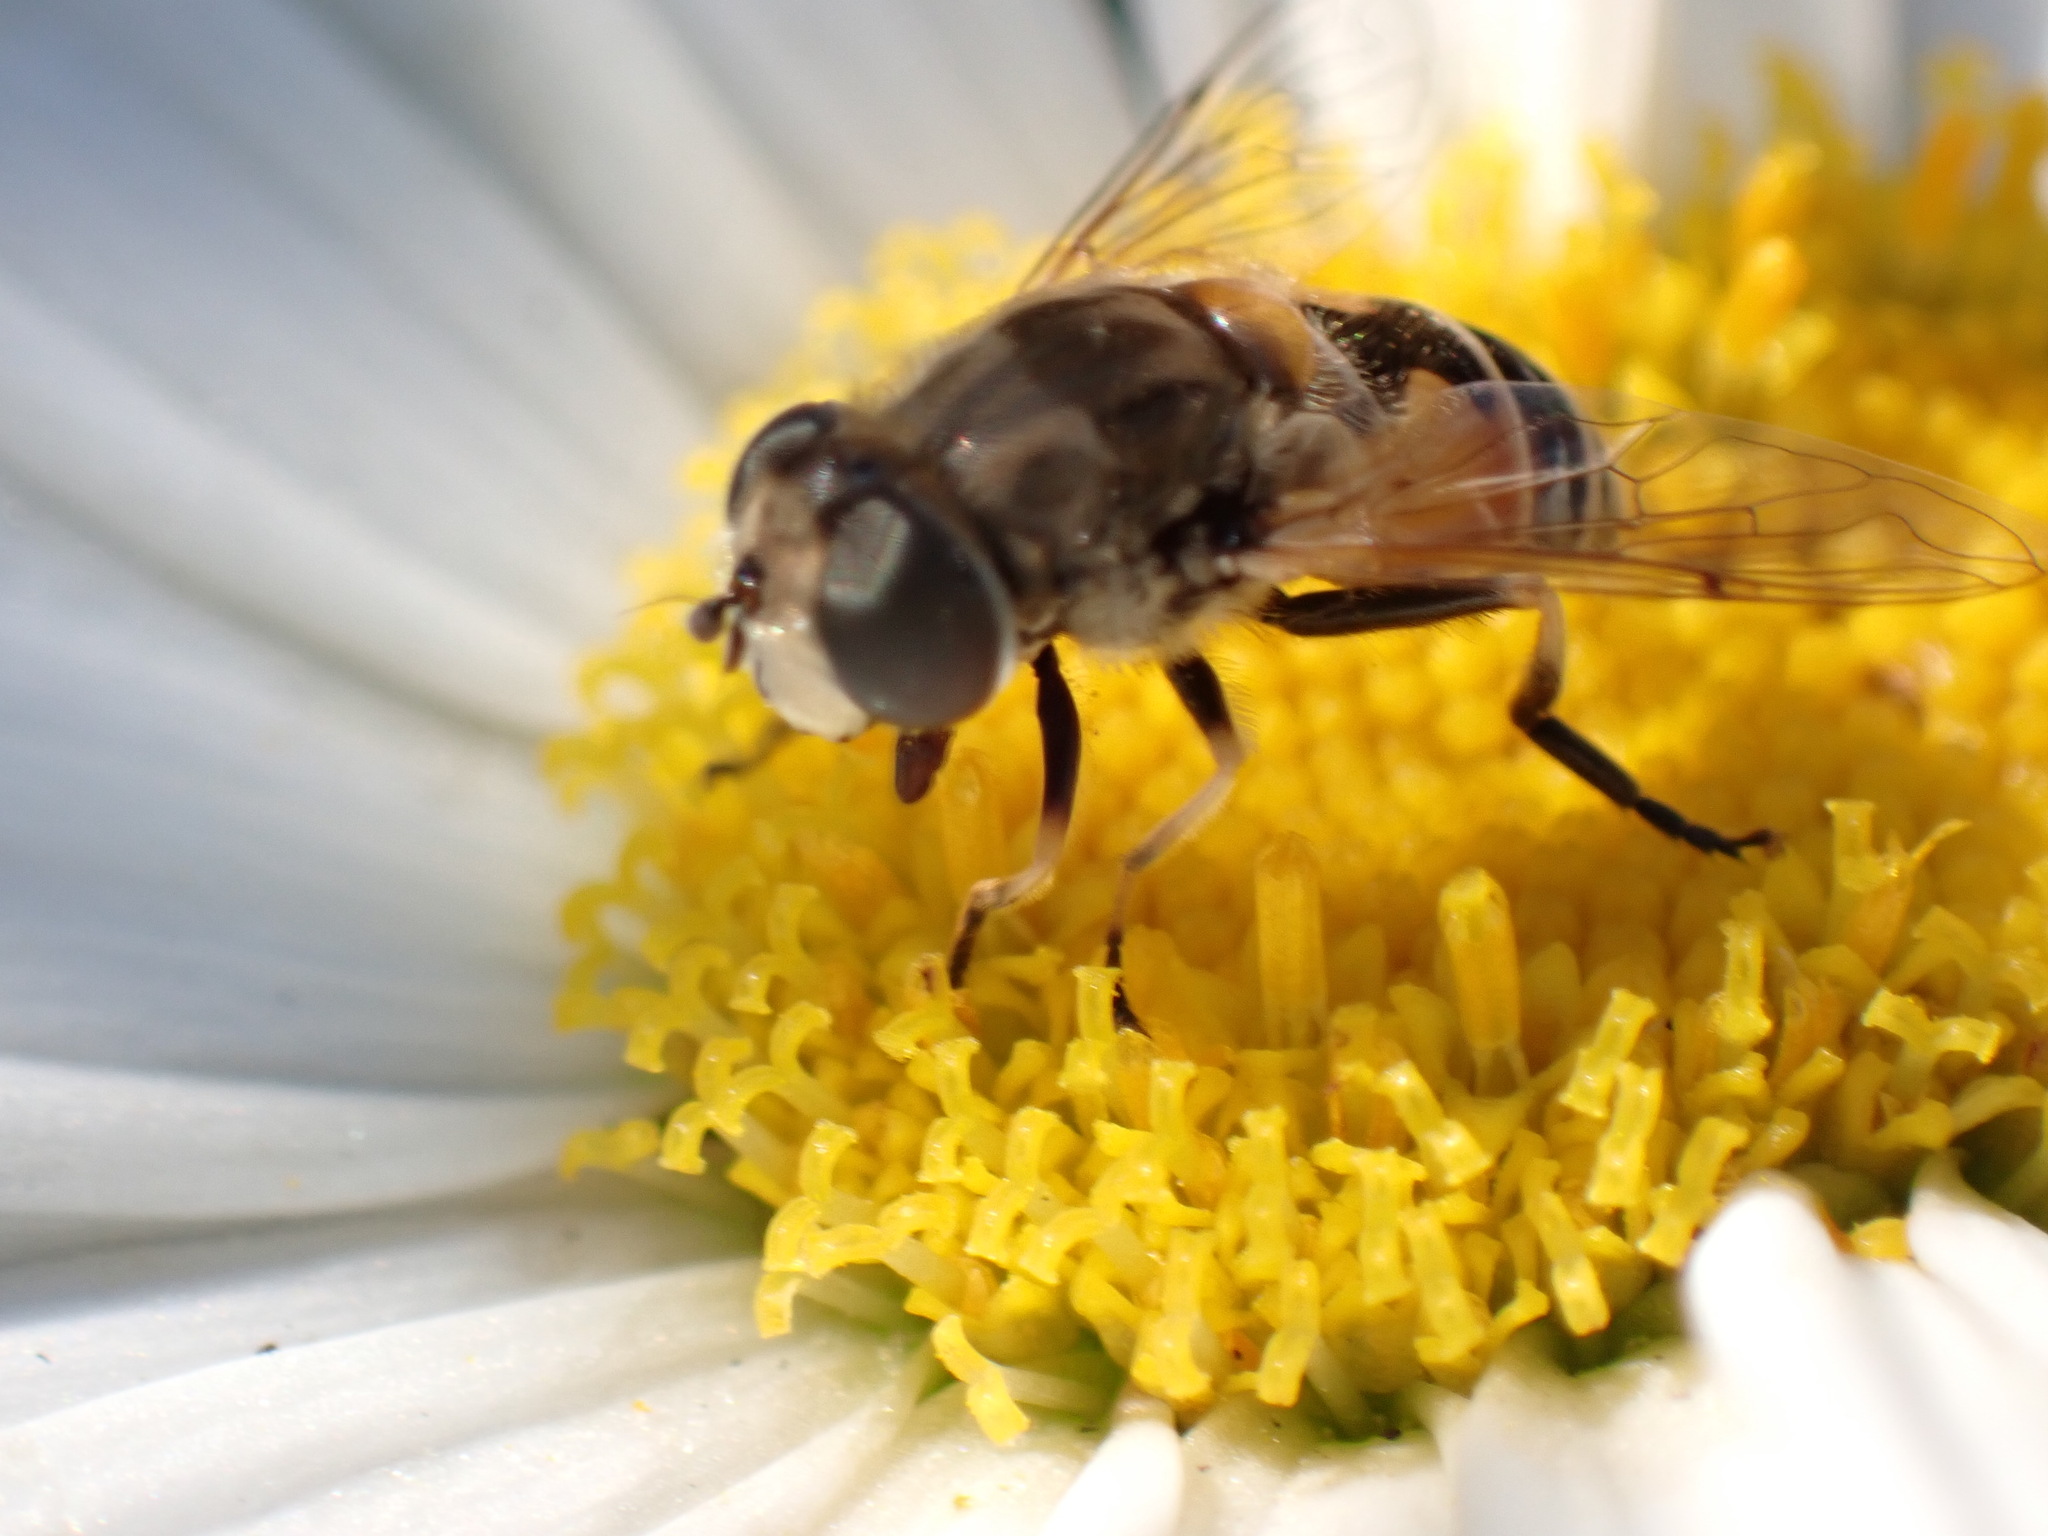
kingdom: Animalia
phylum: Arthropoda
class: Insecta
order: Diptera
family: Syrphidae
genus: Eristalis
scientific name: Eristalis arbustorum
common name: Hover fly
